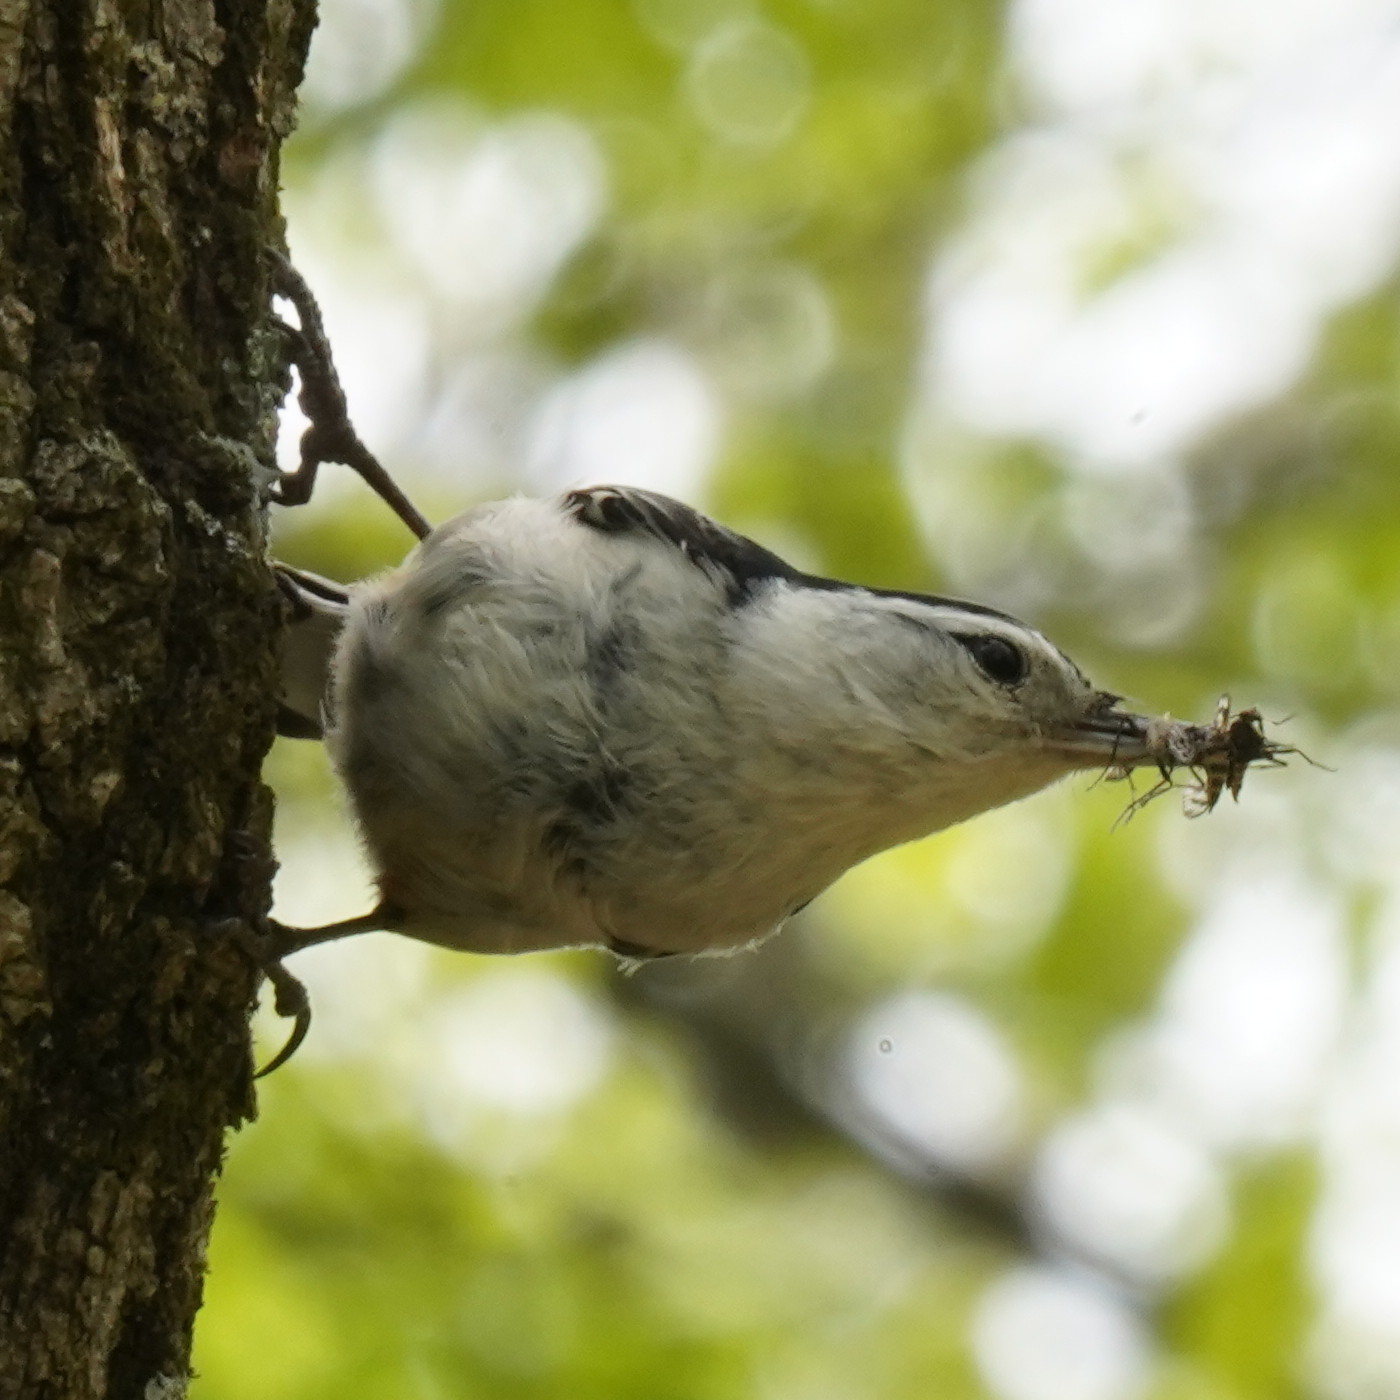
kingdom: Animalia
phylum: Chordata
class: Aves
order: Passeriformes
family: Sittidae
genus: Sitta
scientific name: Sitta carolinensis
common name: White-breasted nuthatch
